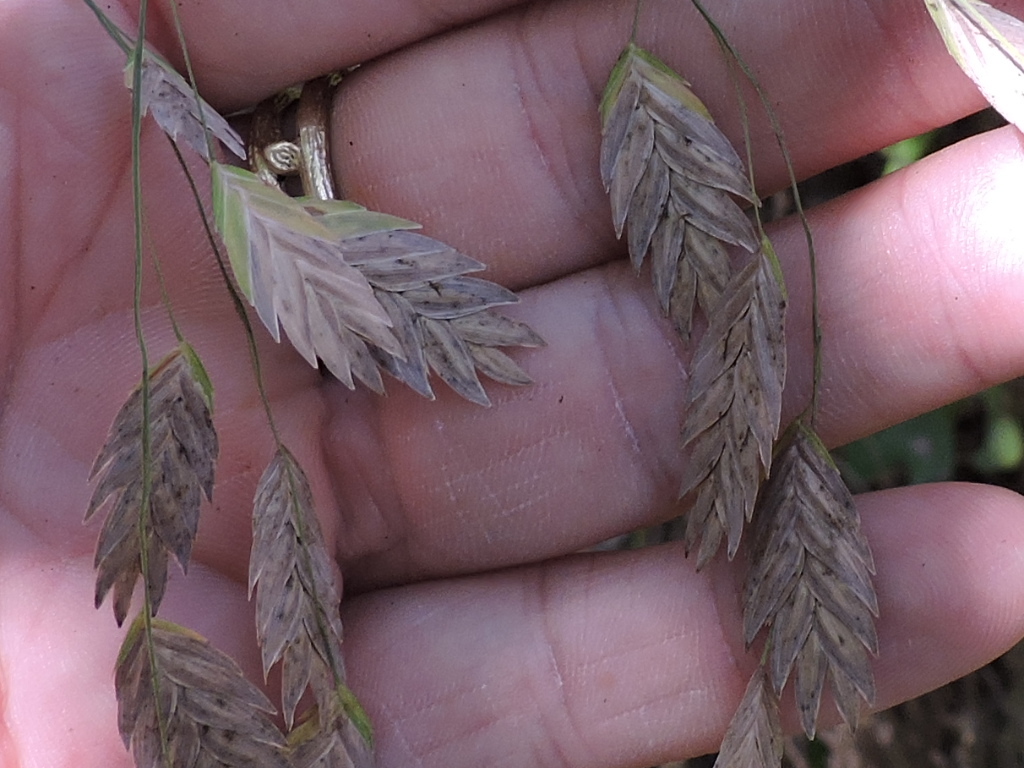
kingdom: Plantae
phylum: Tracheophyta
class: Liliopsida
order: Poales
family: Poaceae
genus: Chasmanthium
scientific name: Chasmanthium latifolium
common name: Broad-leaved chasmanthium
